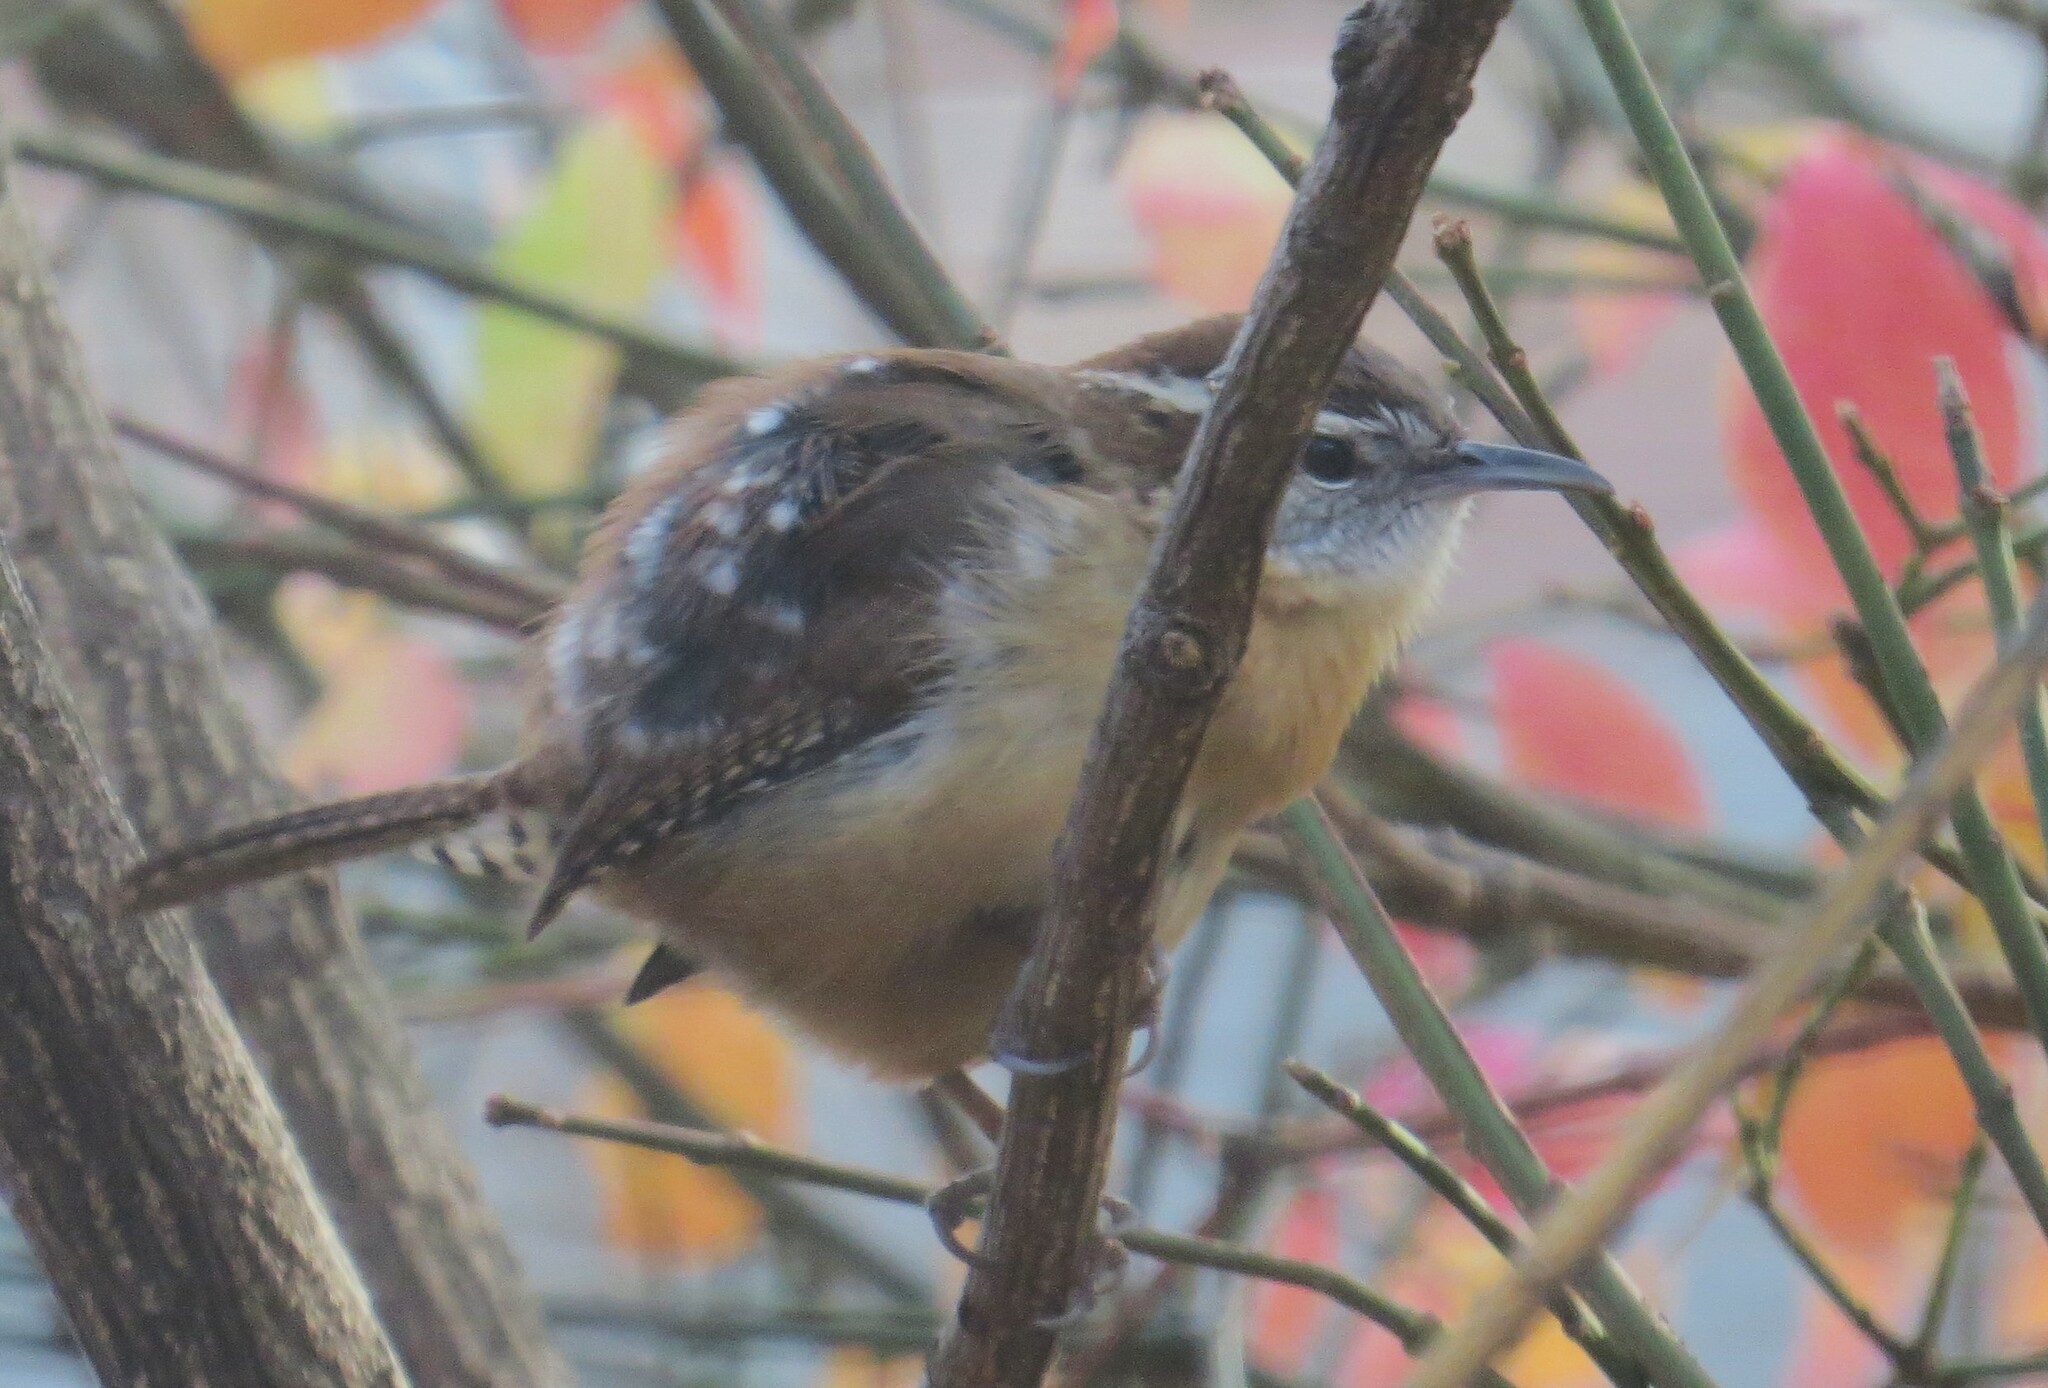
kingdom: Animalia
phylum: Chordata
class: Aves
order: Passeriformes
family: Troglodytidae
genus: Thryothorus
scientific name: Thryothorus ludovicianus
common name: Carolina wren
